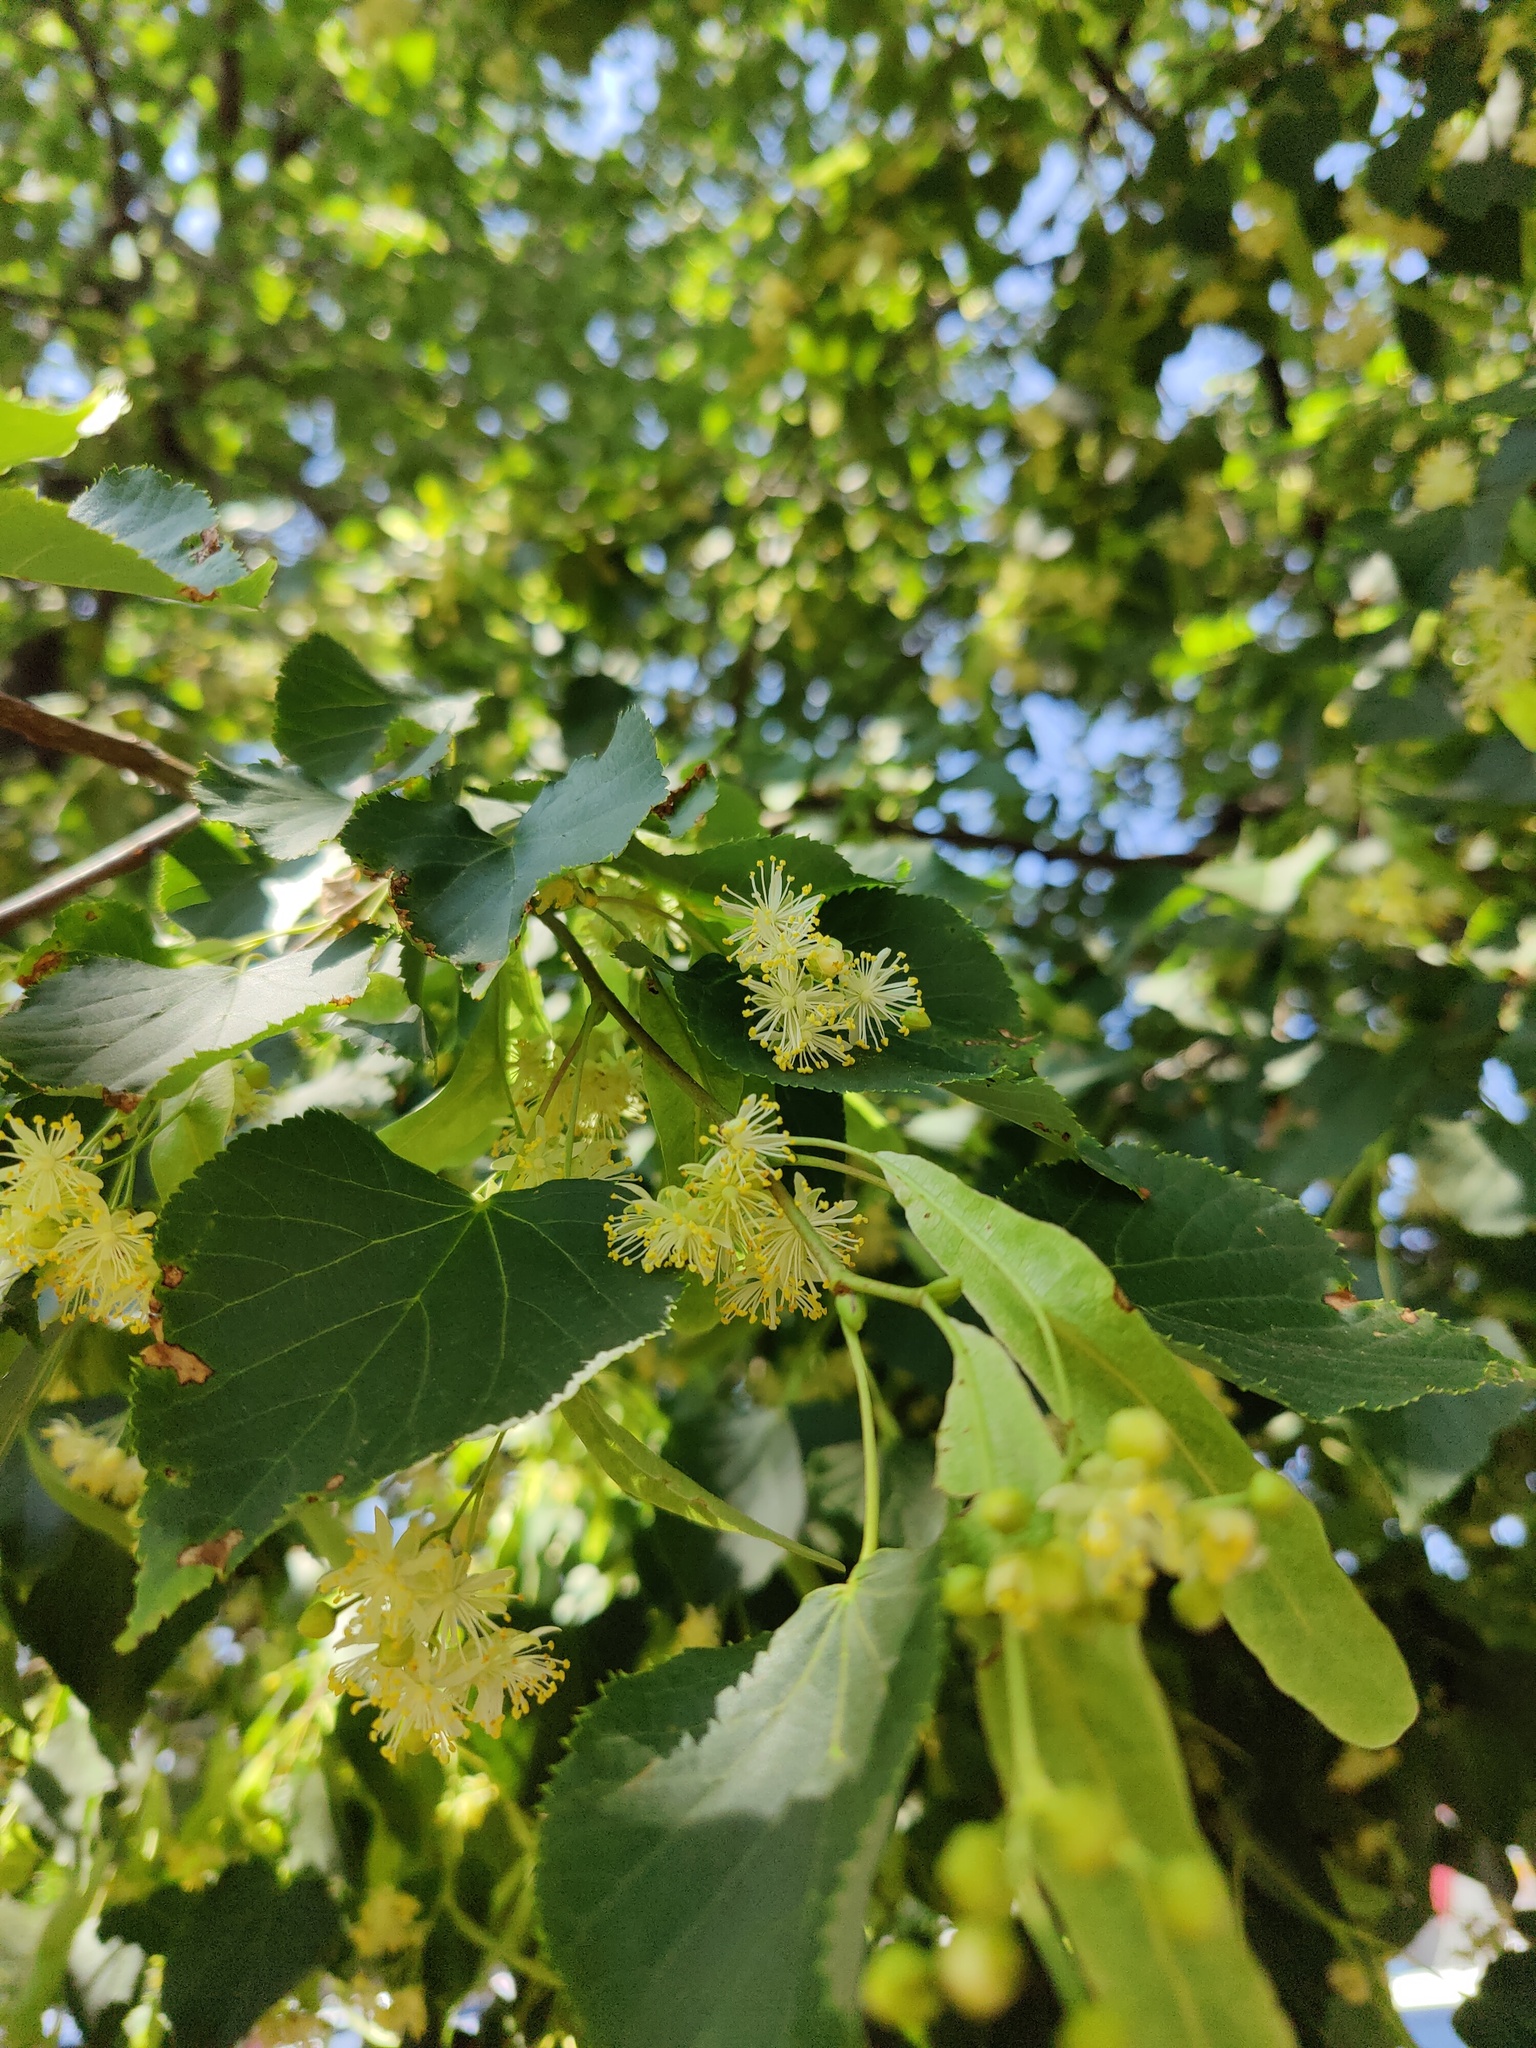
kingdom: Plantae
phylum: Tracheophyta
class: Magnoliopsida
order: Malvales
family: Malvaceae
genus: Tilia
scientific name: Tilia cordata
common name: Small-leaved lime
